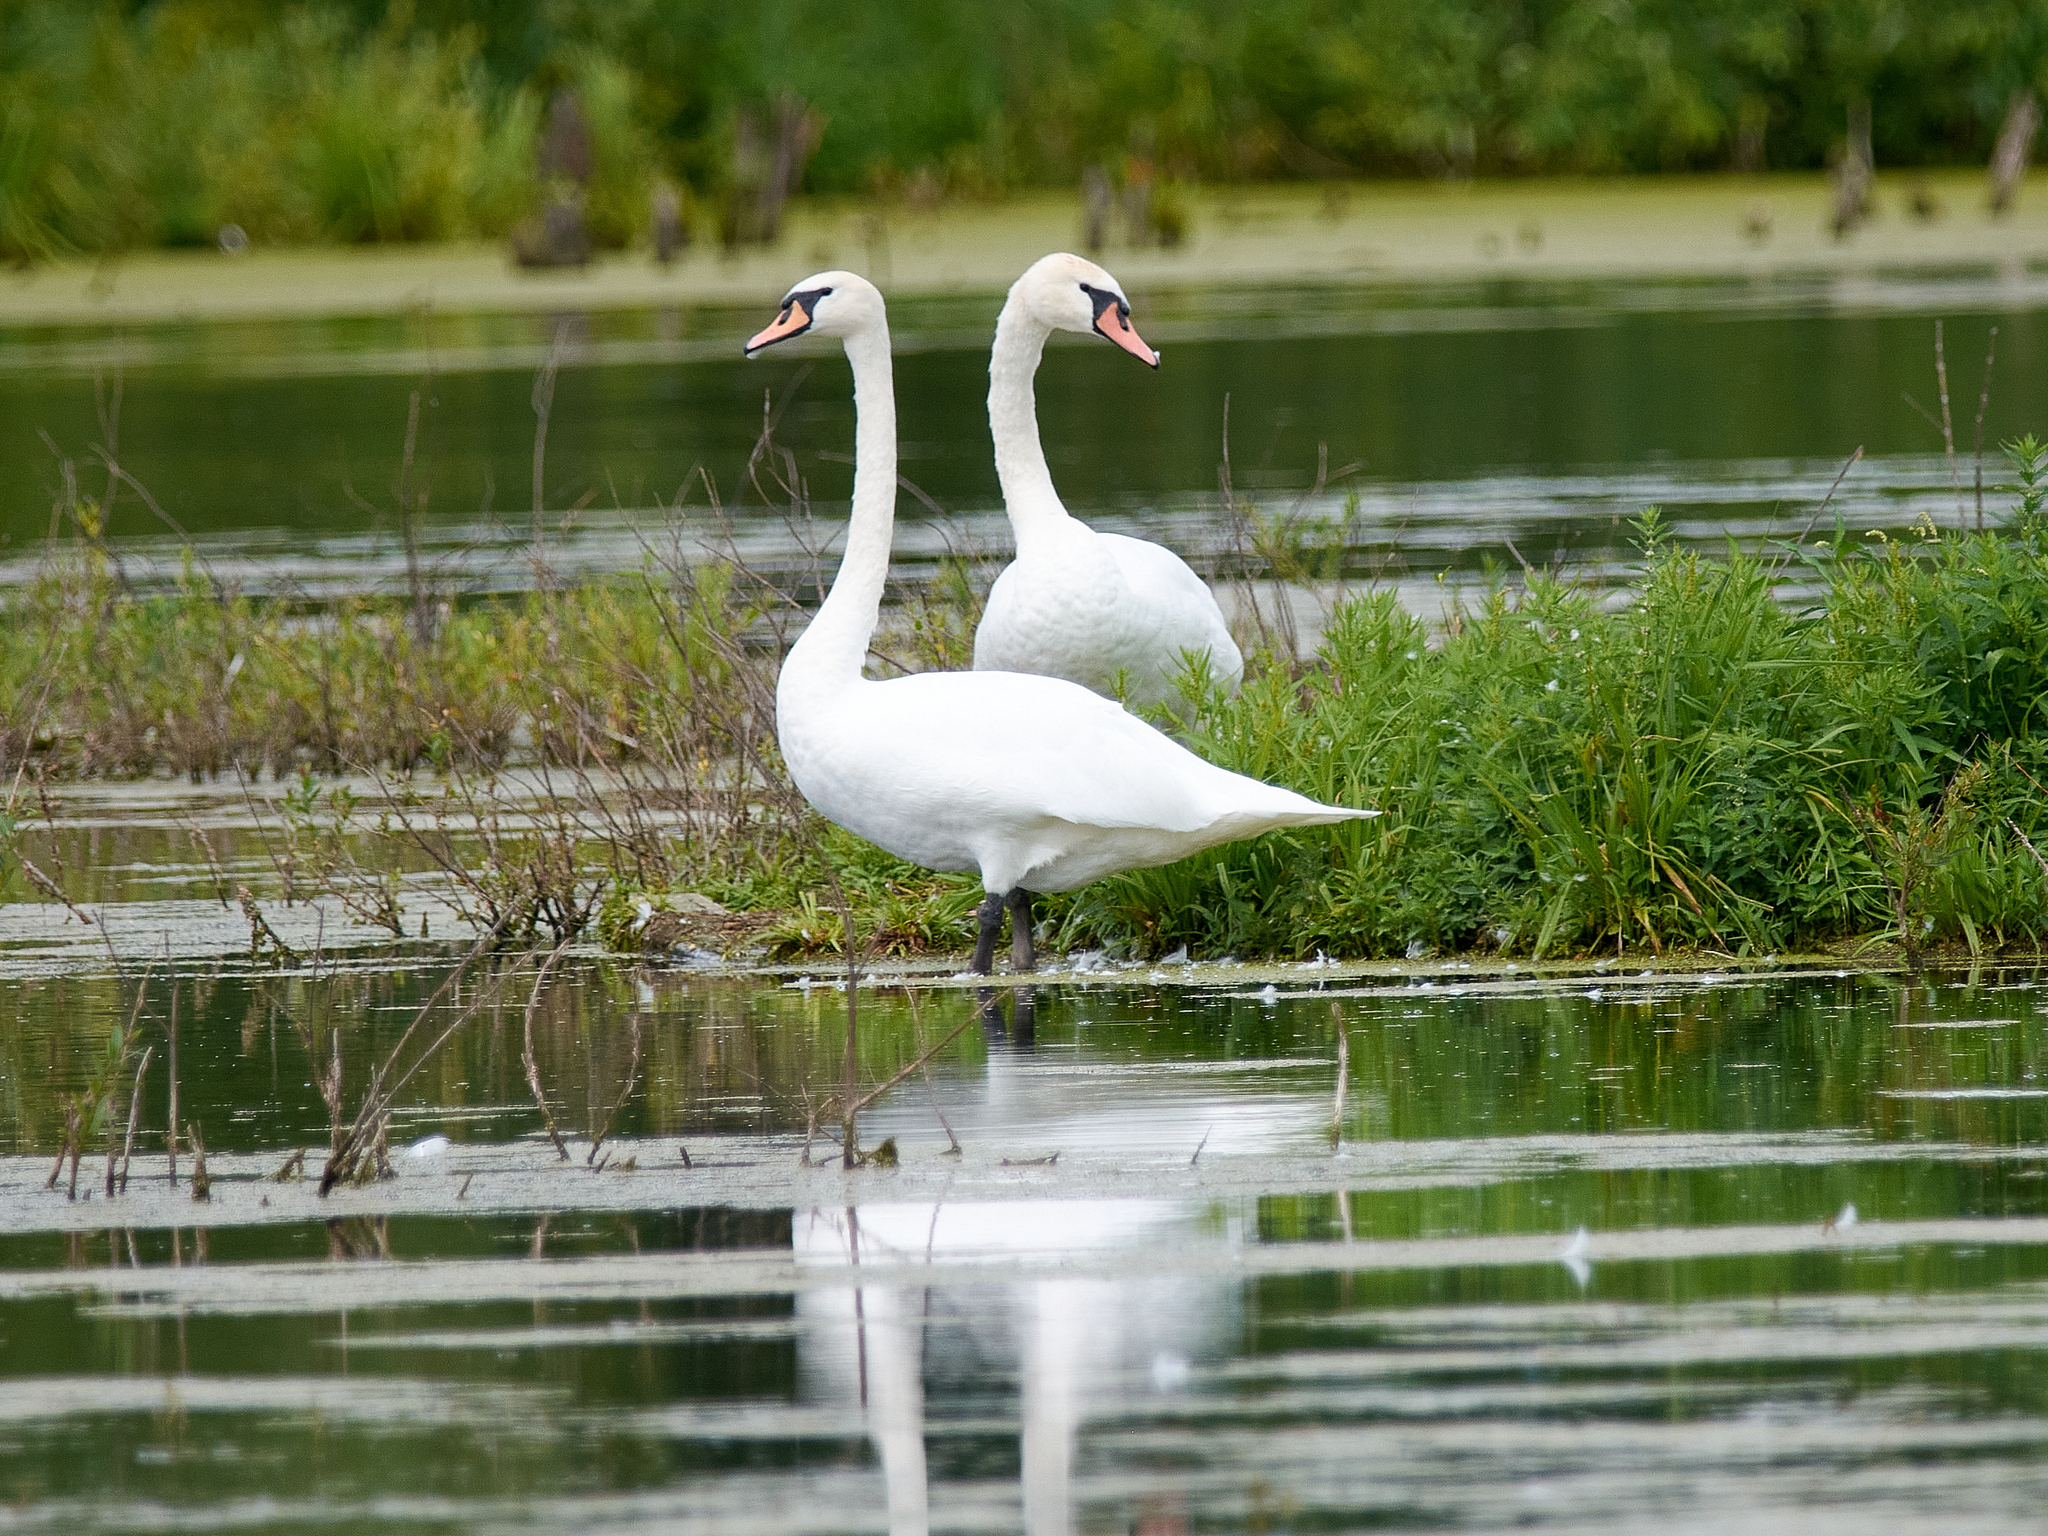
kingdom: Animalia
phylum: Chordata
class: Aves
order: Anseriformes
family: Anatidae
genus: Cygnus
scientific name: Cygnus olor
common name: Mute swan
